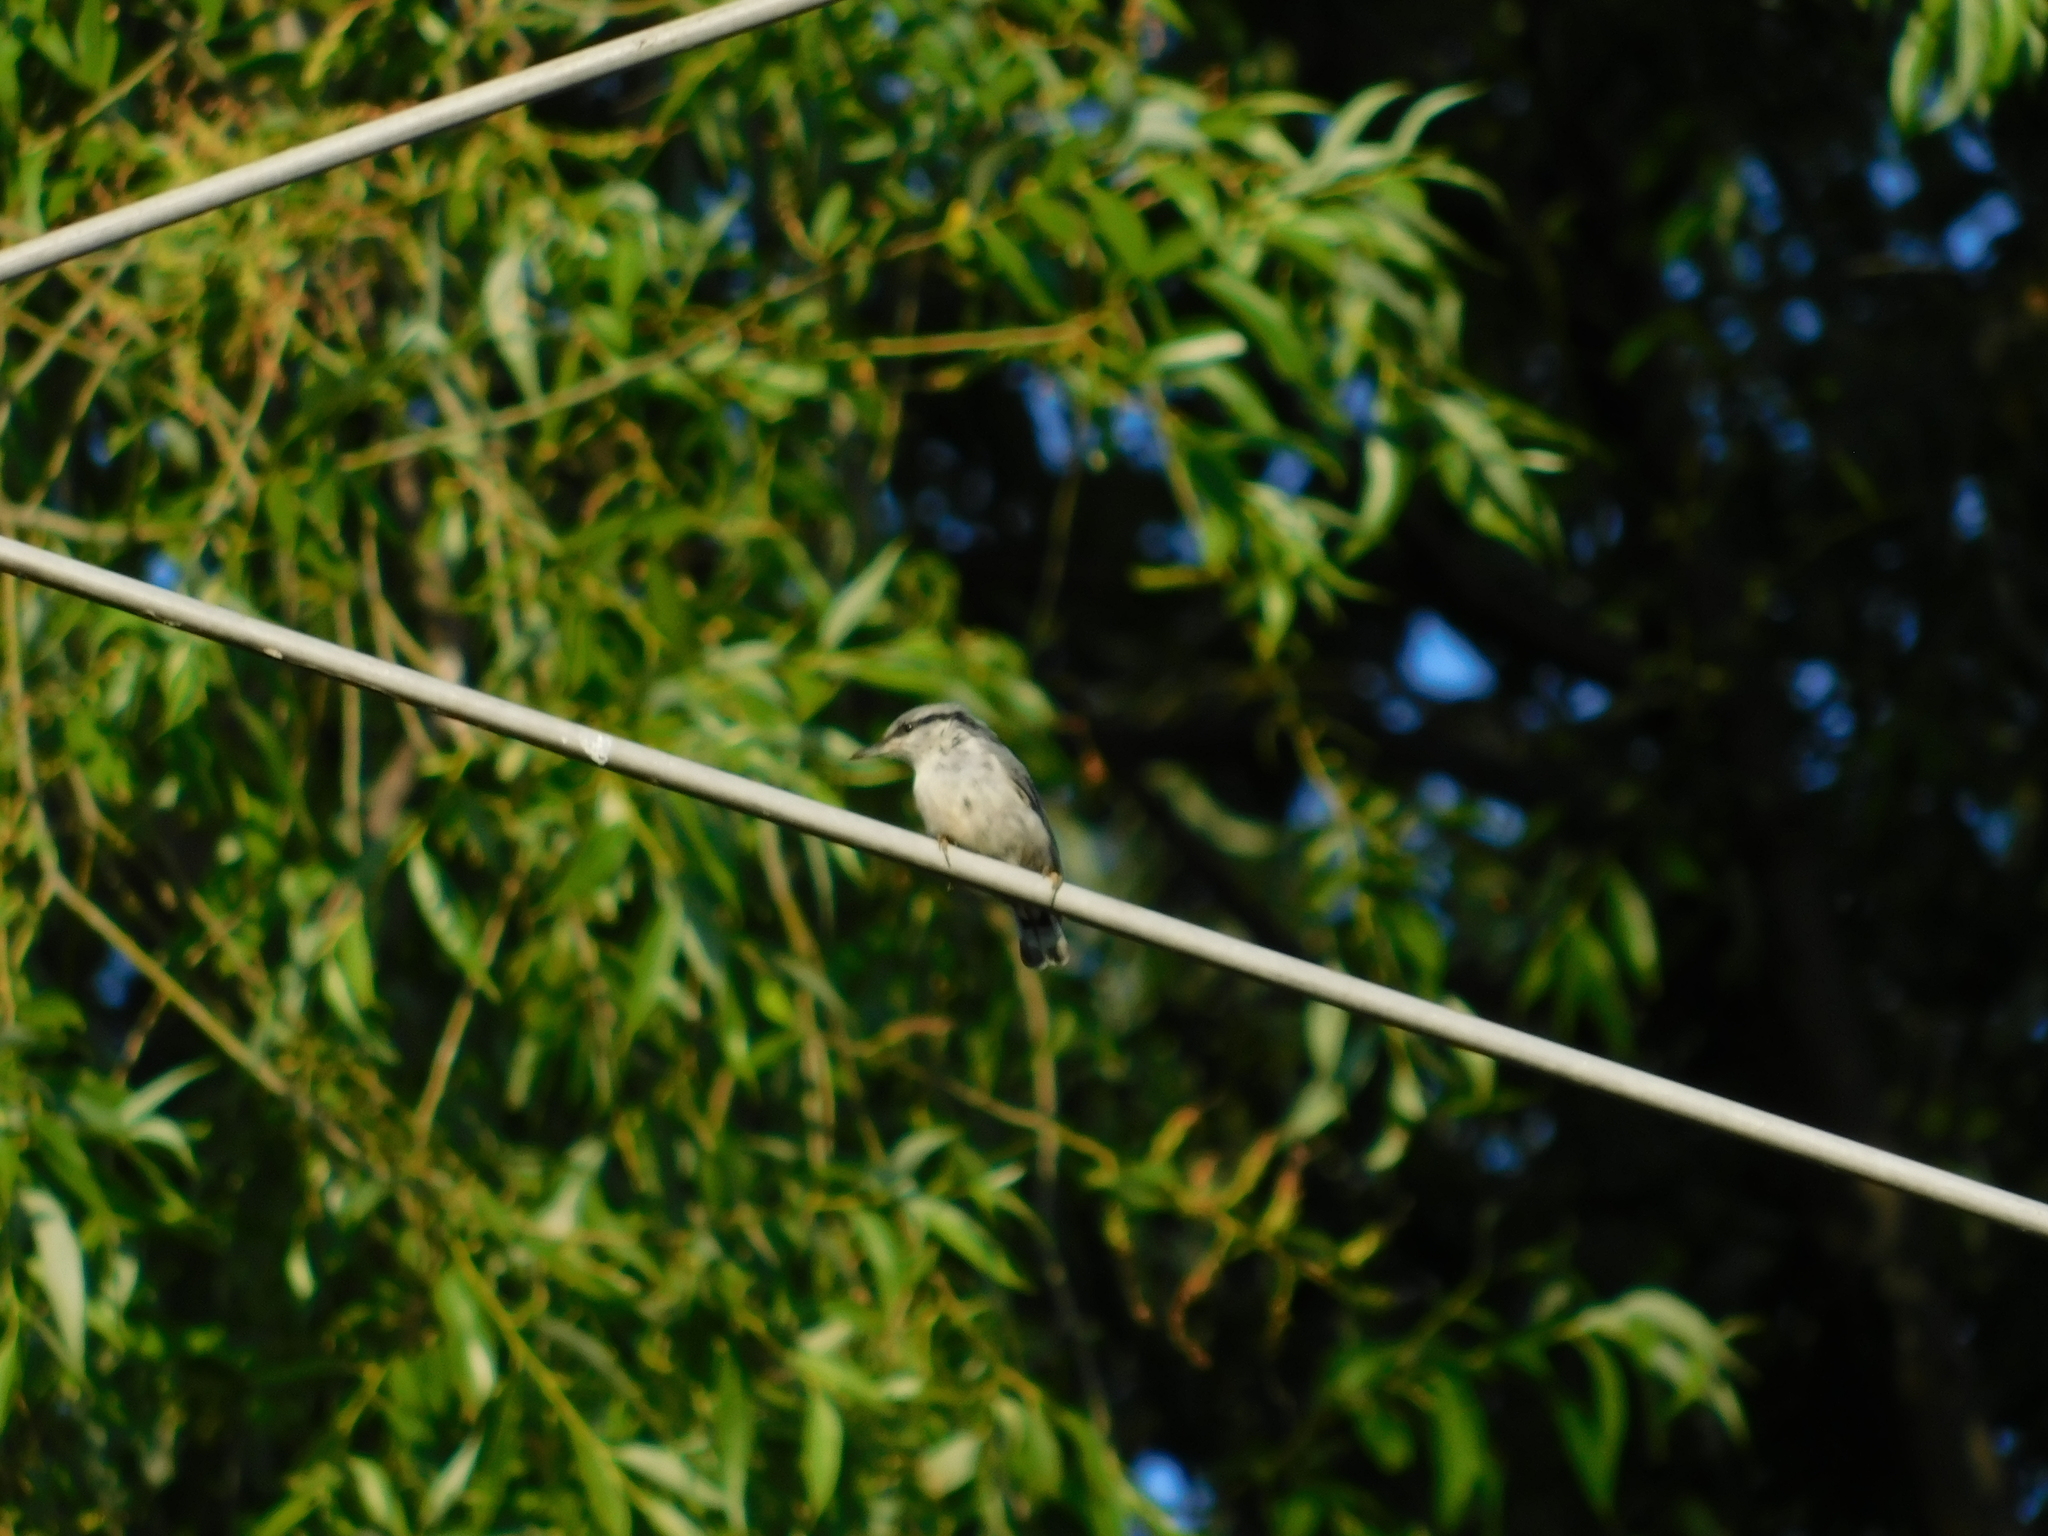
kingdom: Animalia
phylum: Chordata
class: Aves
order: Passeriformes
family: Sittidae
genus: Sitta
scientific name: Sitta europaea
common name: Eurasian nuthatch
